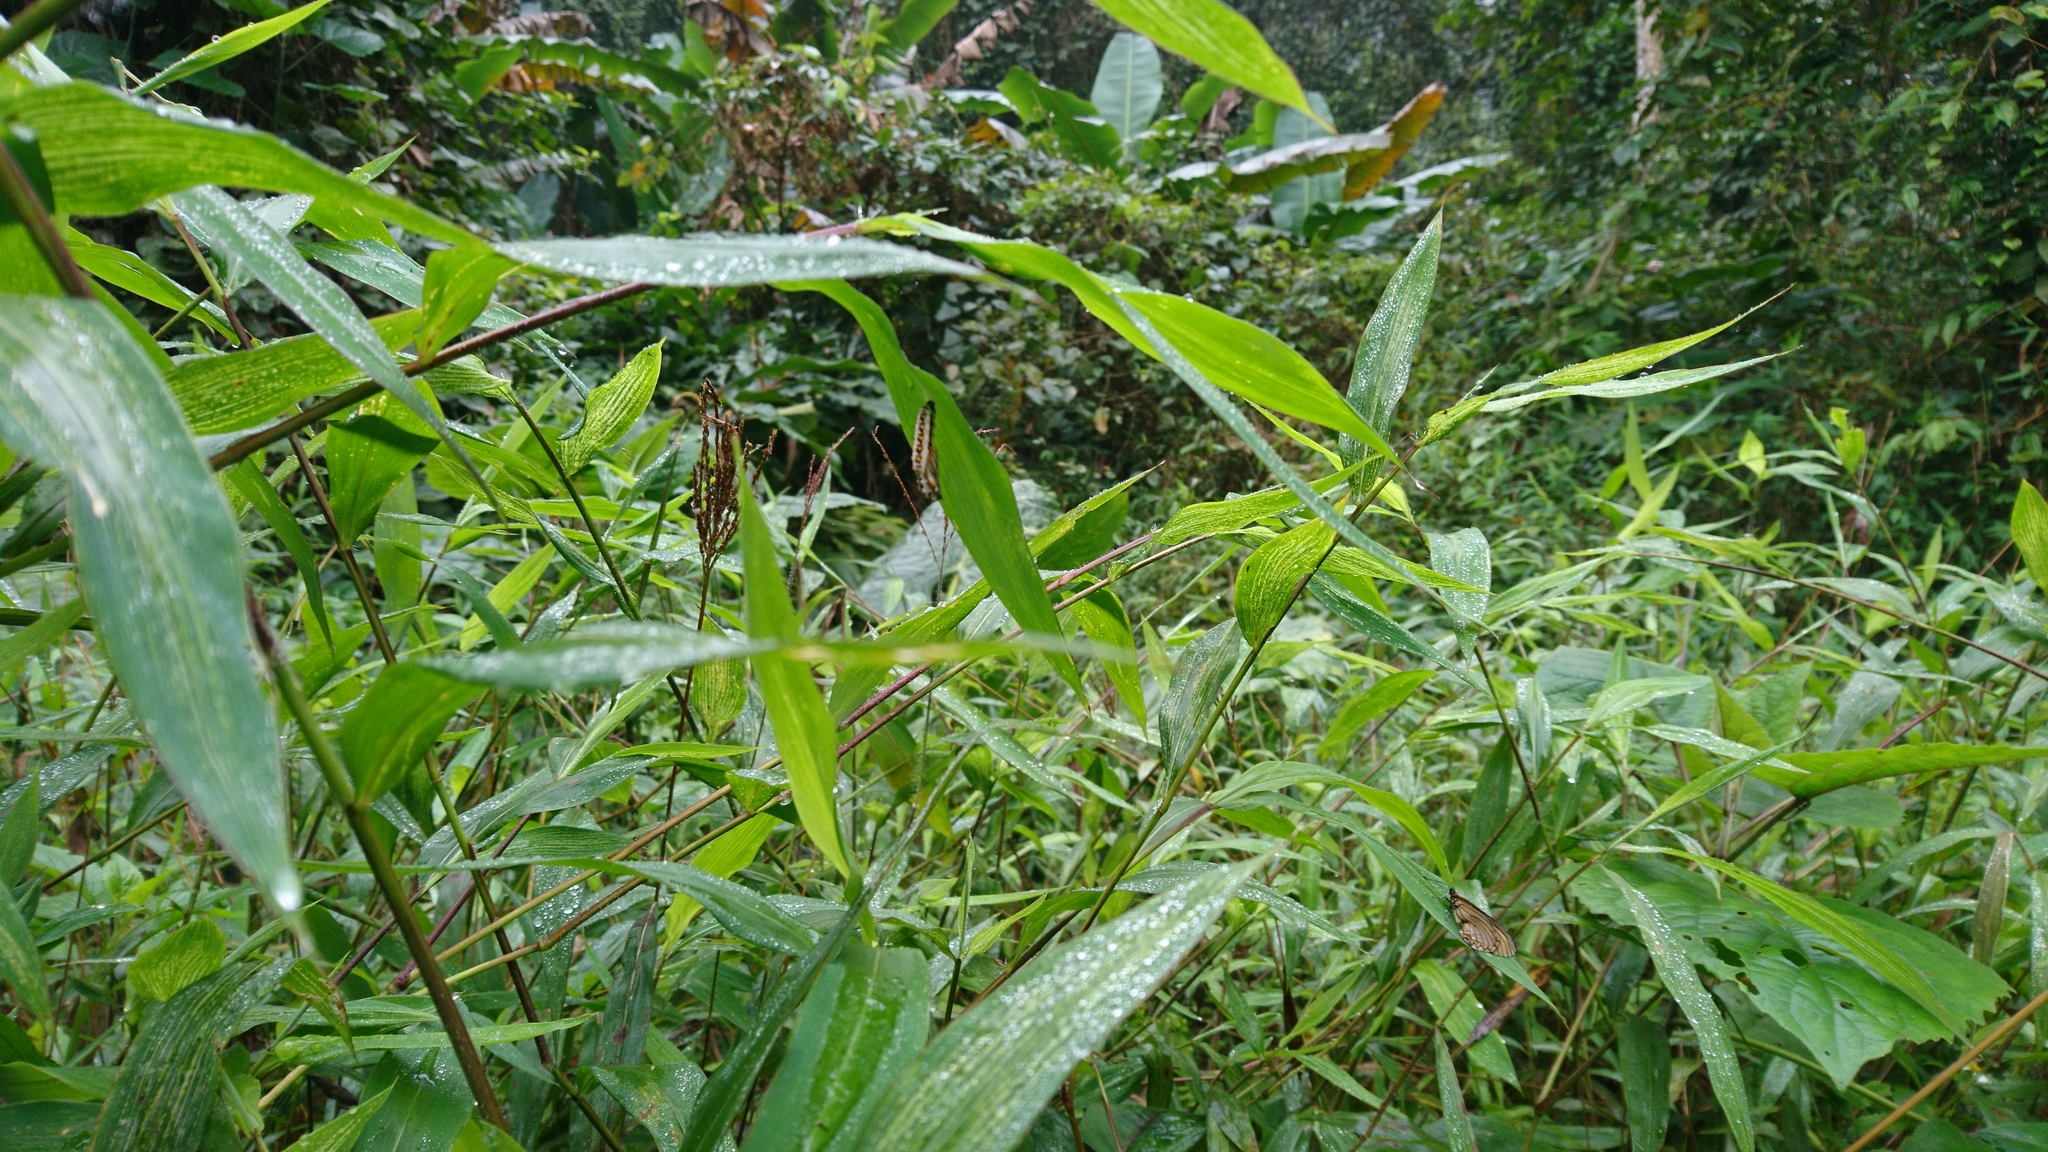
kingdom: Animalia
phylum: Arthropoda
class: Insecta
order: Lepidoptera
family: Nymphalidae
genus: Acraea
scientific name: Acraea Telchinia issoria
